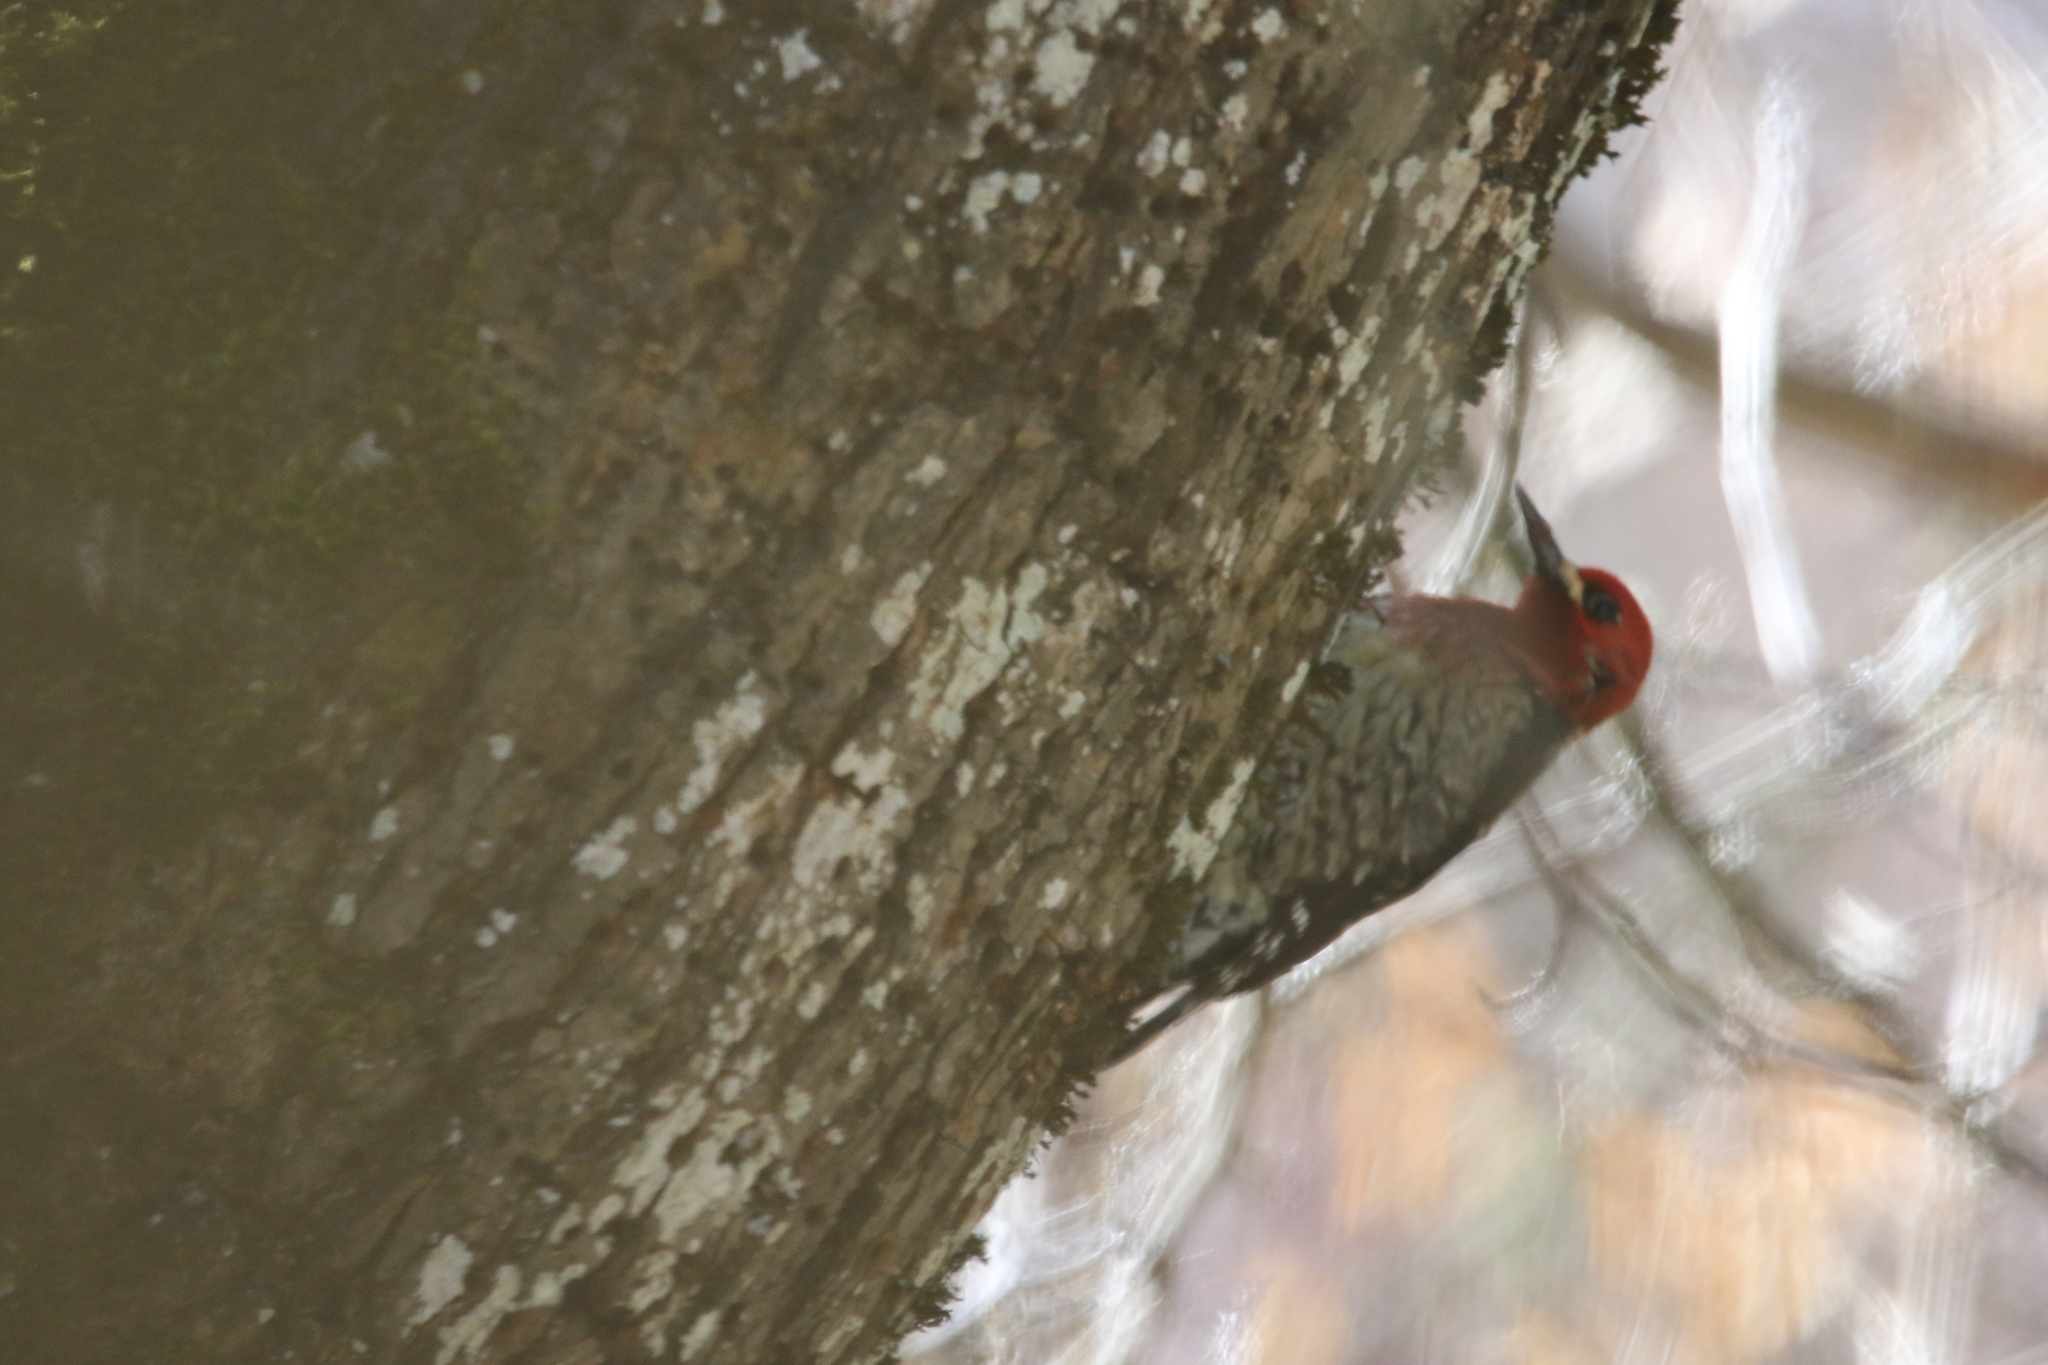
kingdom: Animalia
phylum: Chordata
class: Aves
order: Piciformes
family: Picidae
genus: Sphyrapicus
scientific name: Sphyrapicus ruber
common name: Red-breasted sapsucker
